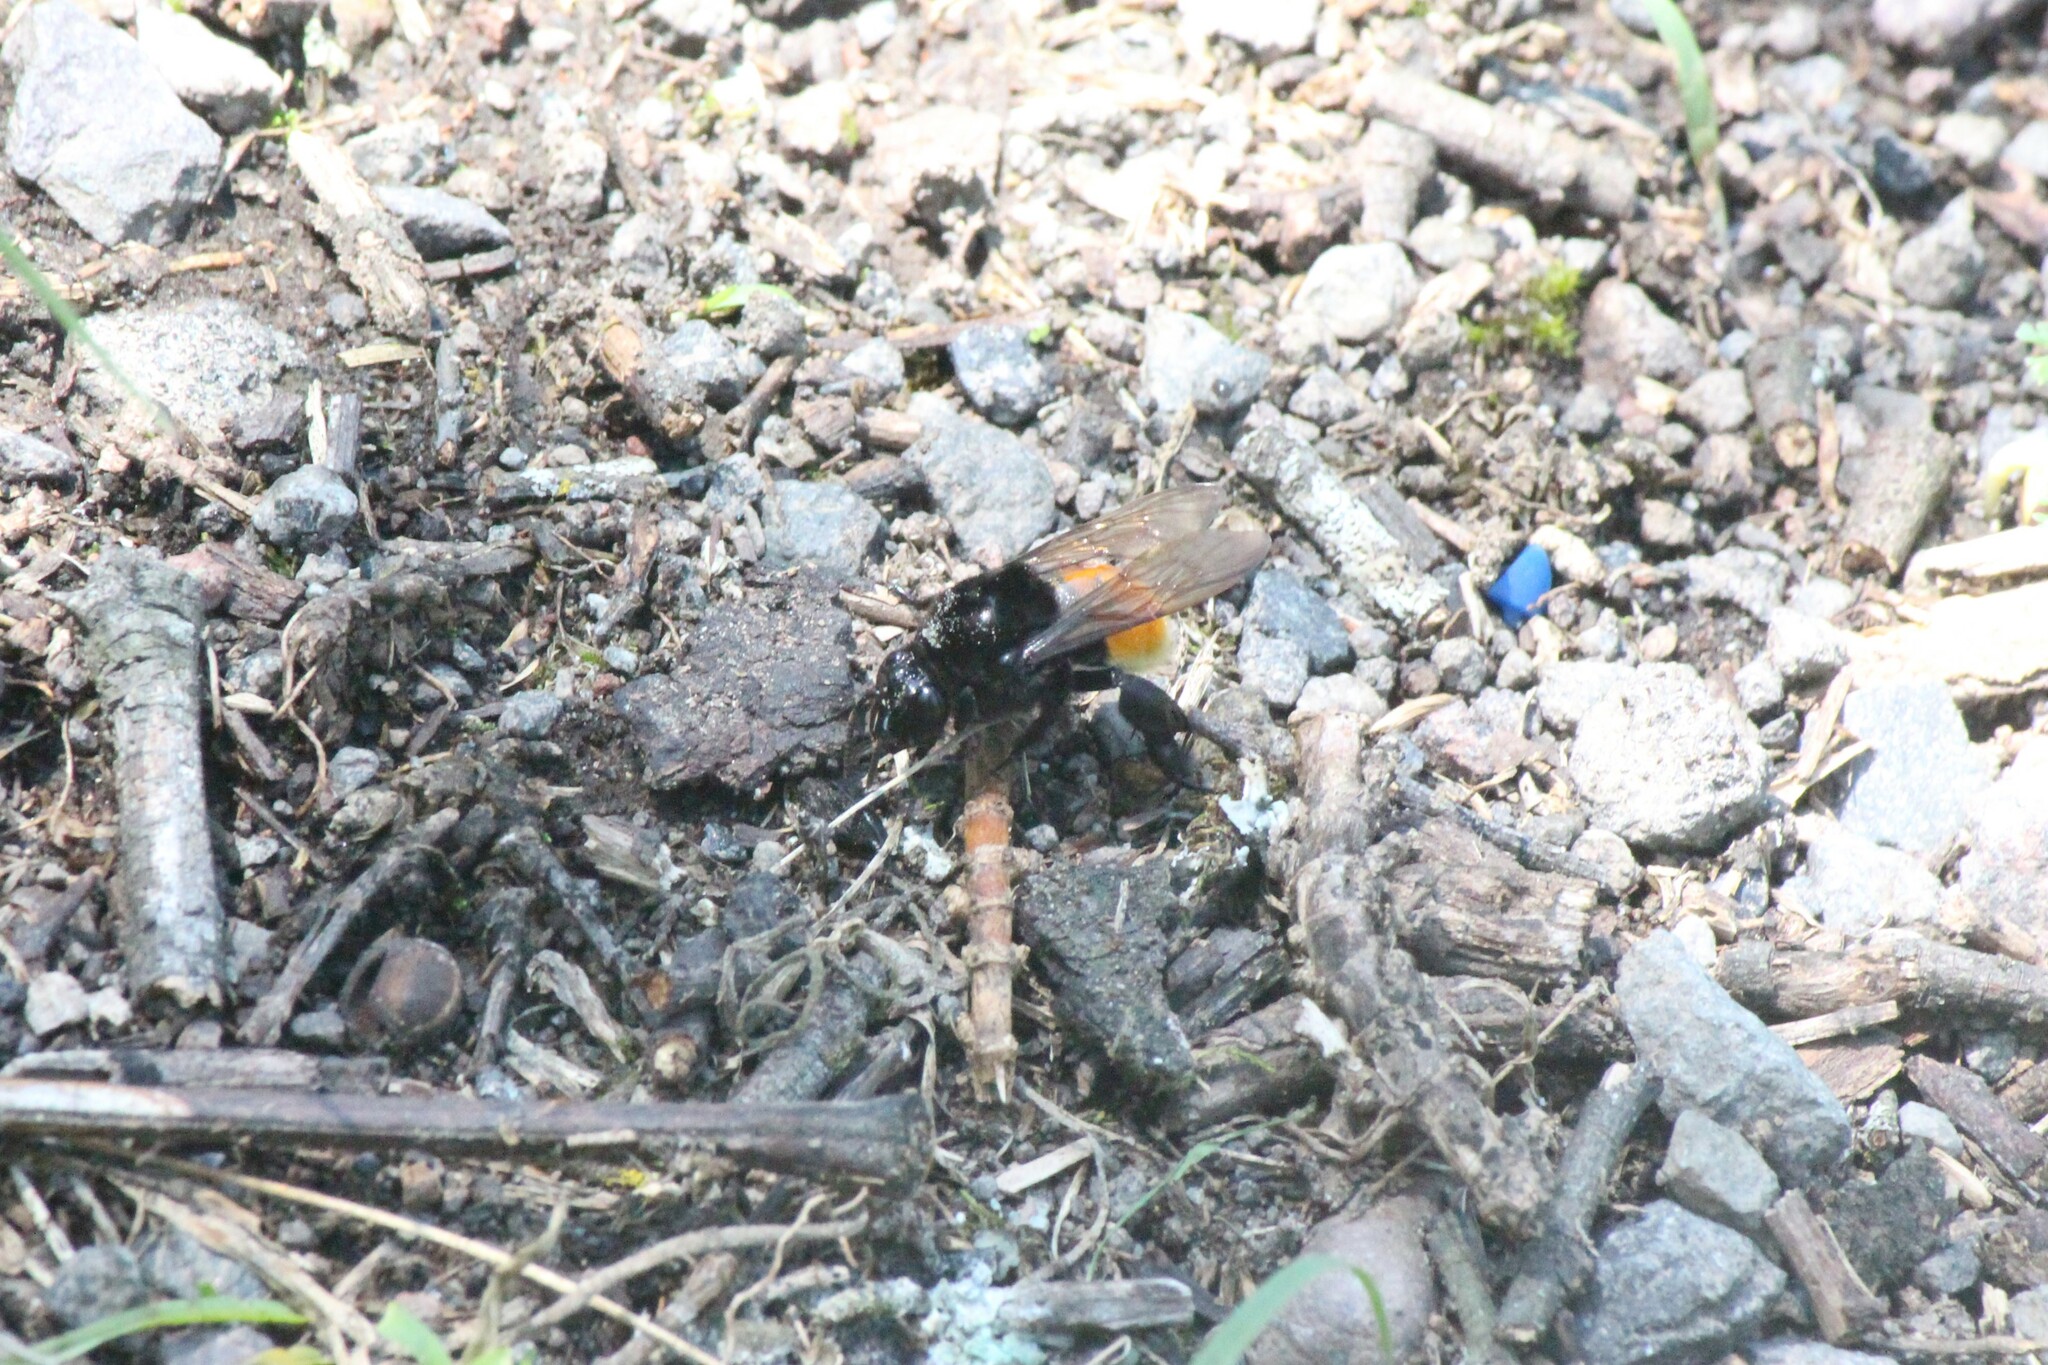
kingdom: Animalia
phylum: Arthropoda
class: Insecta
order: Hymenoptera
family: Apidae
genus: Eulaema
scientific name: Eulaema polychroma
